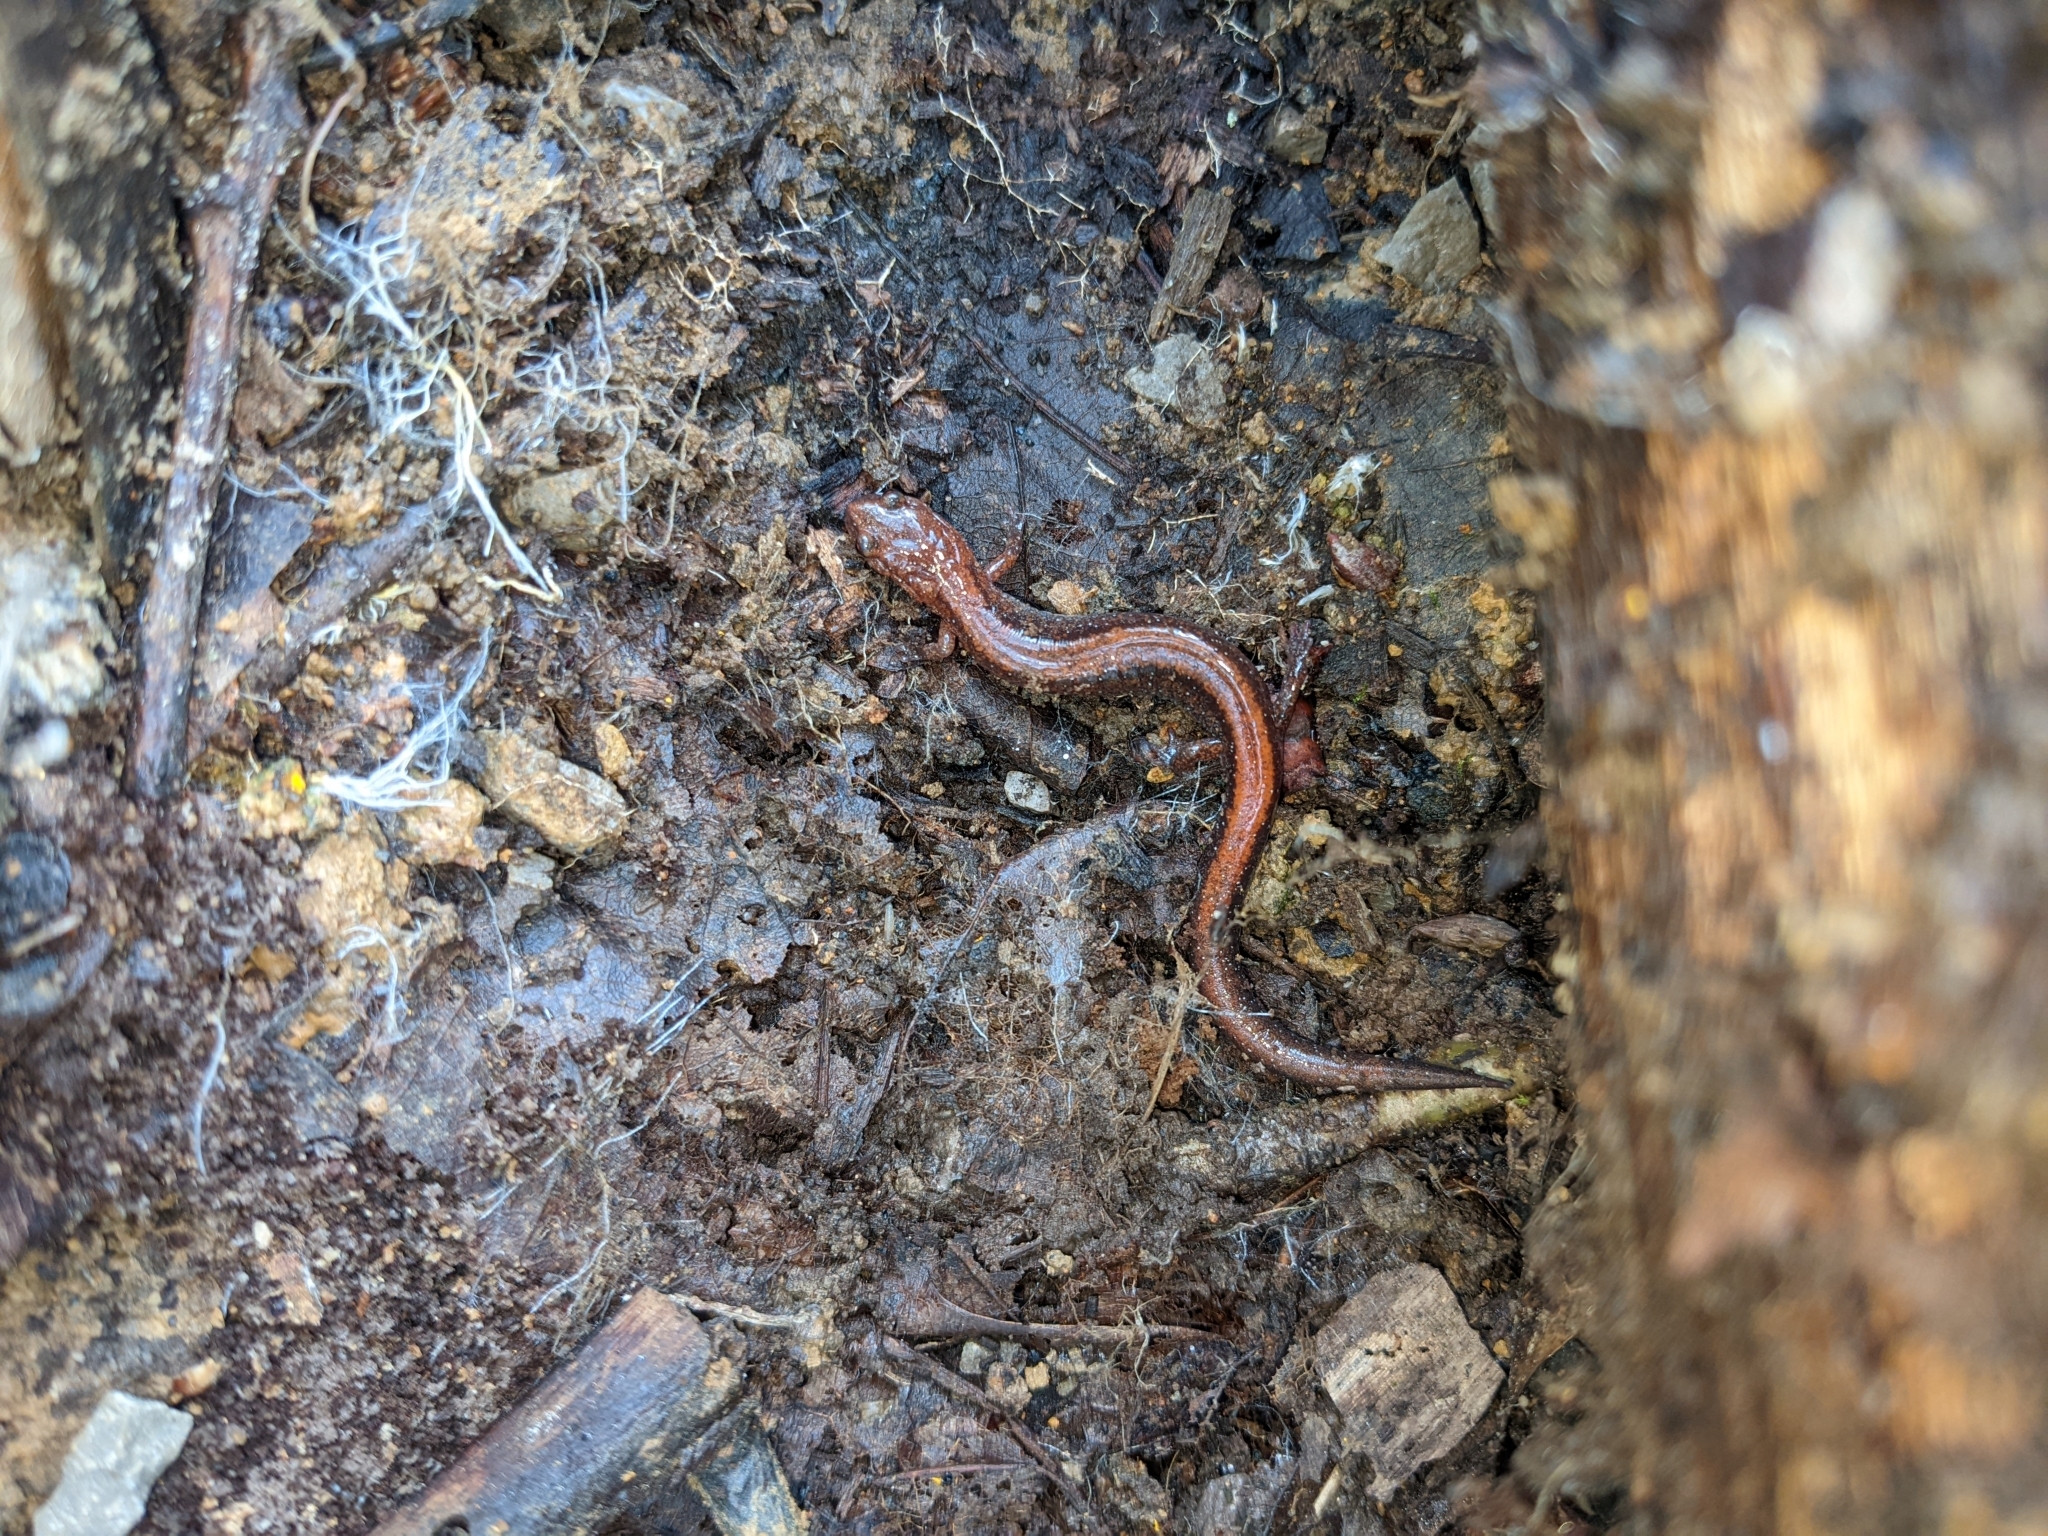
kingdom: Animalia
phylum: Chordata
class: Amphibia
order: Caudata
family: Plethodontidae
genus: Plethodon
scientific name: Plethodon cinereus
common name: Redback salamander
